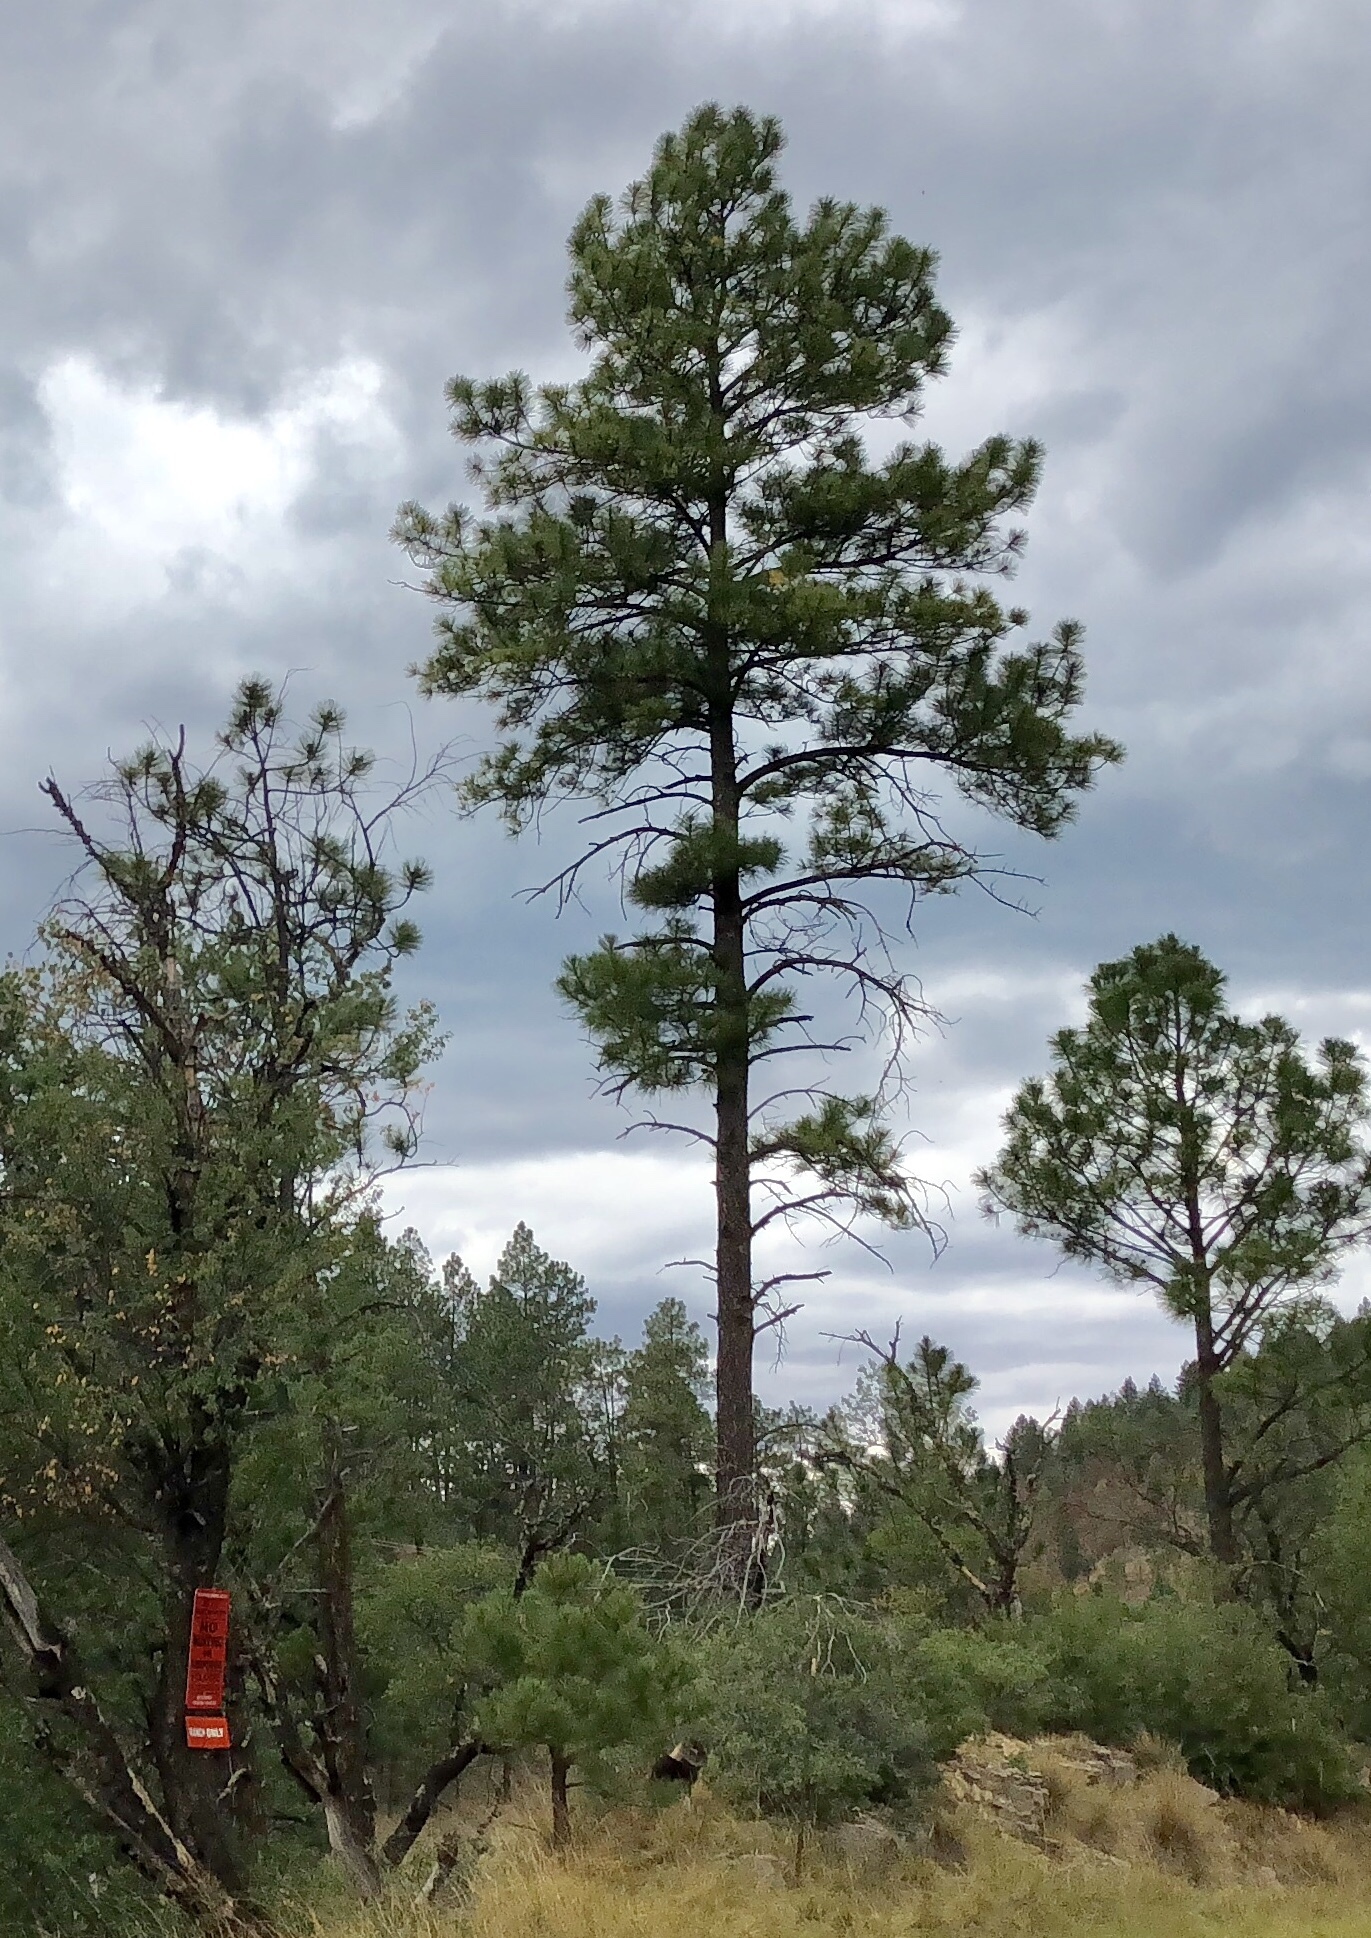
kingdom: Plantae
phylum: Tracheophyta
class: Pinopsida
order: Pinales
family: Pinaceae
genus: Pinus
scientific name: Pinus ponderosa
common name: Western yellow-pine
